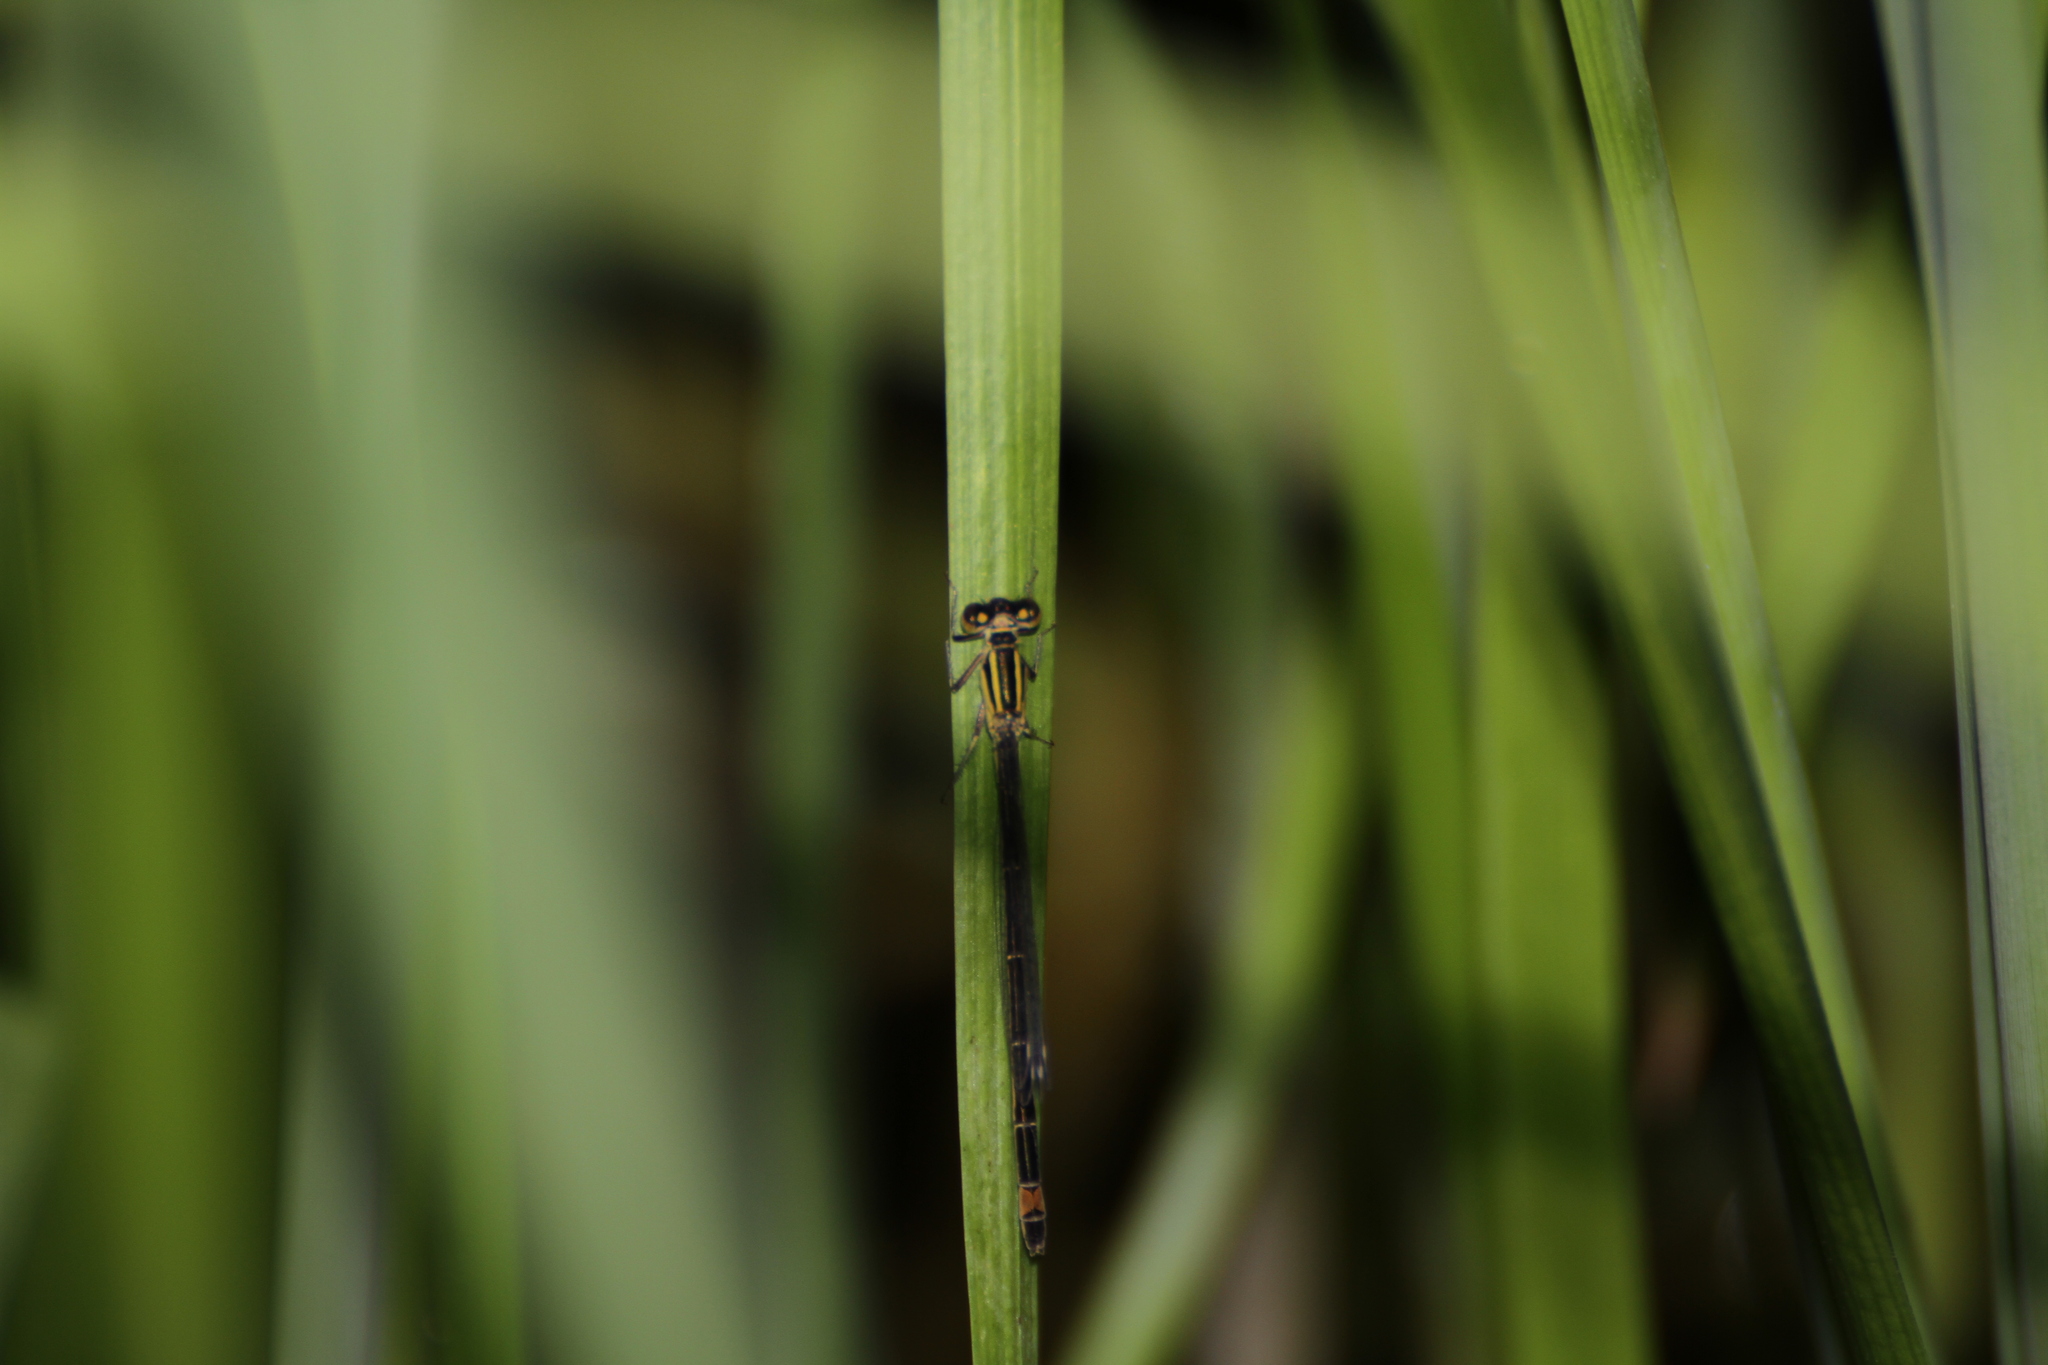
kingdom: Animalia
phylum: Arthropoda
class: Insecta
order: Odonata
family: Coenagrionidae
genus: Ischnura
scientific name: Ischnura elegans
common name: Blue-tailed damselfly
